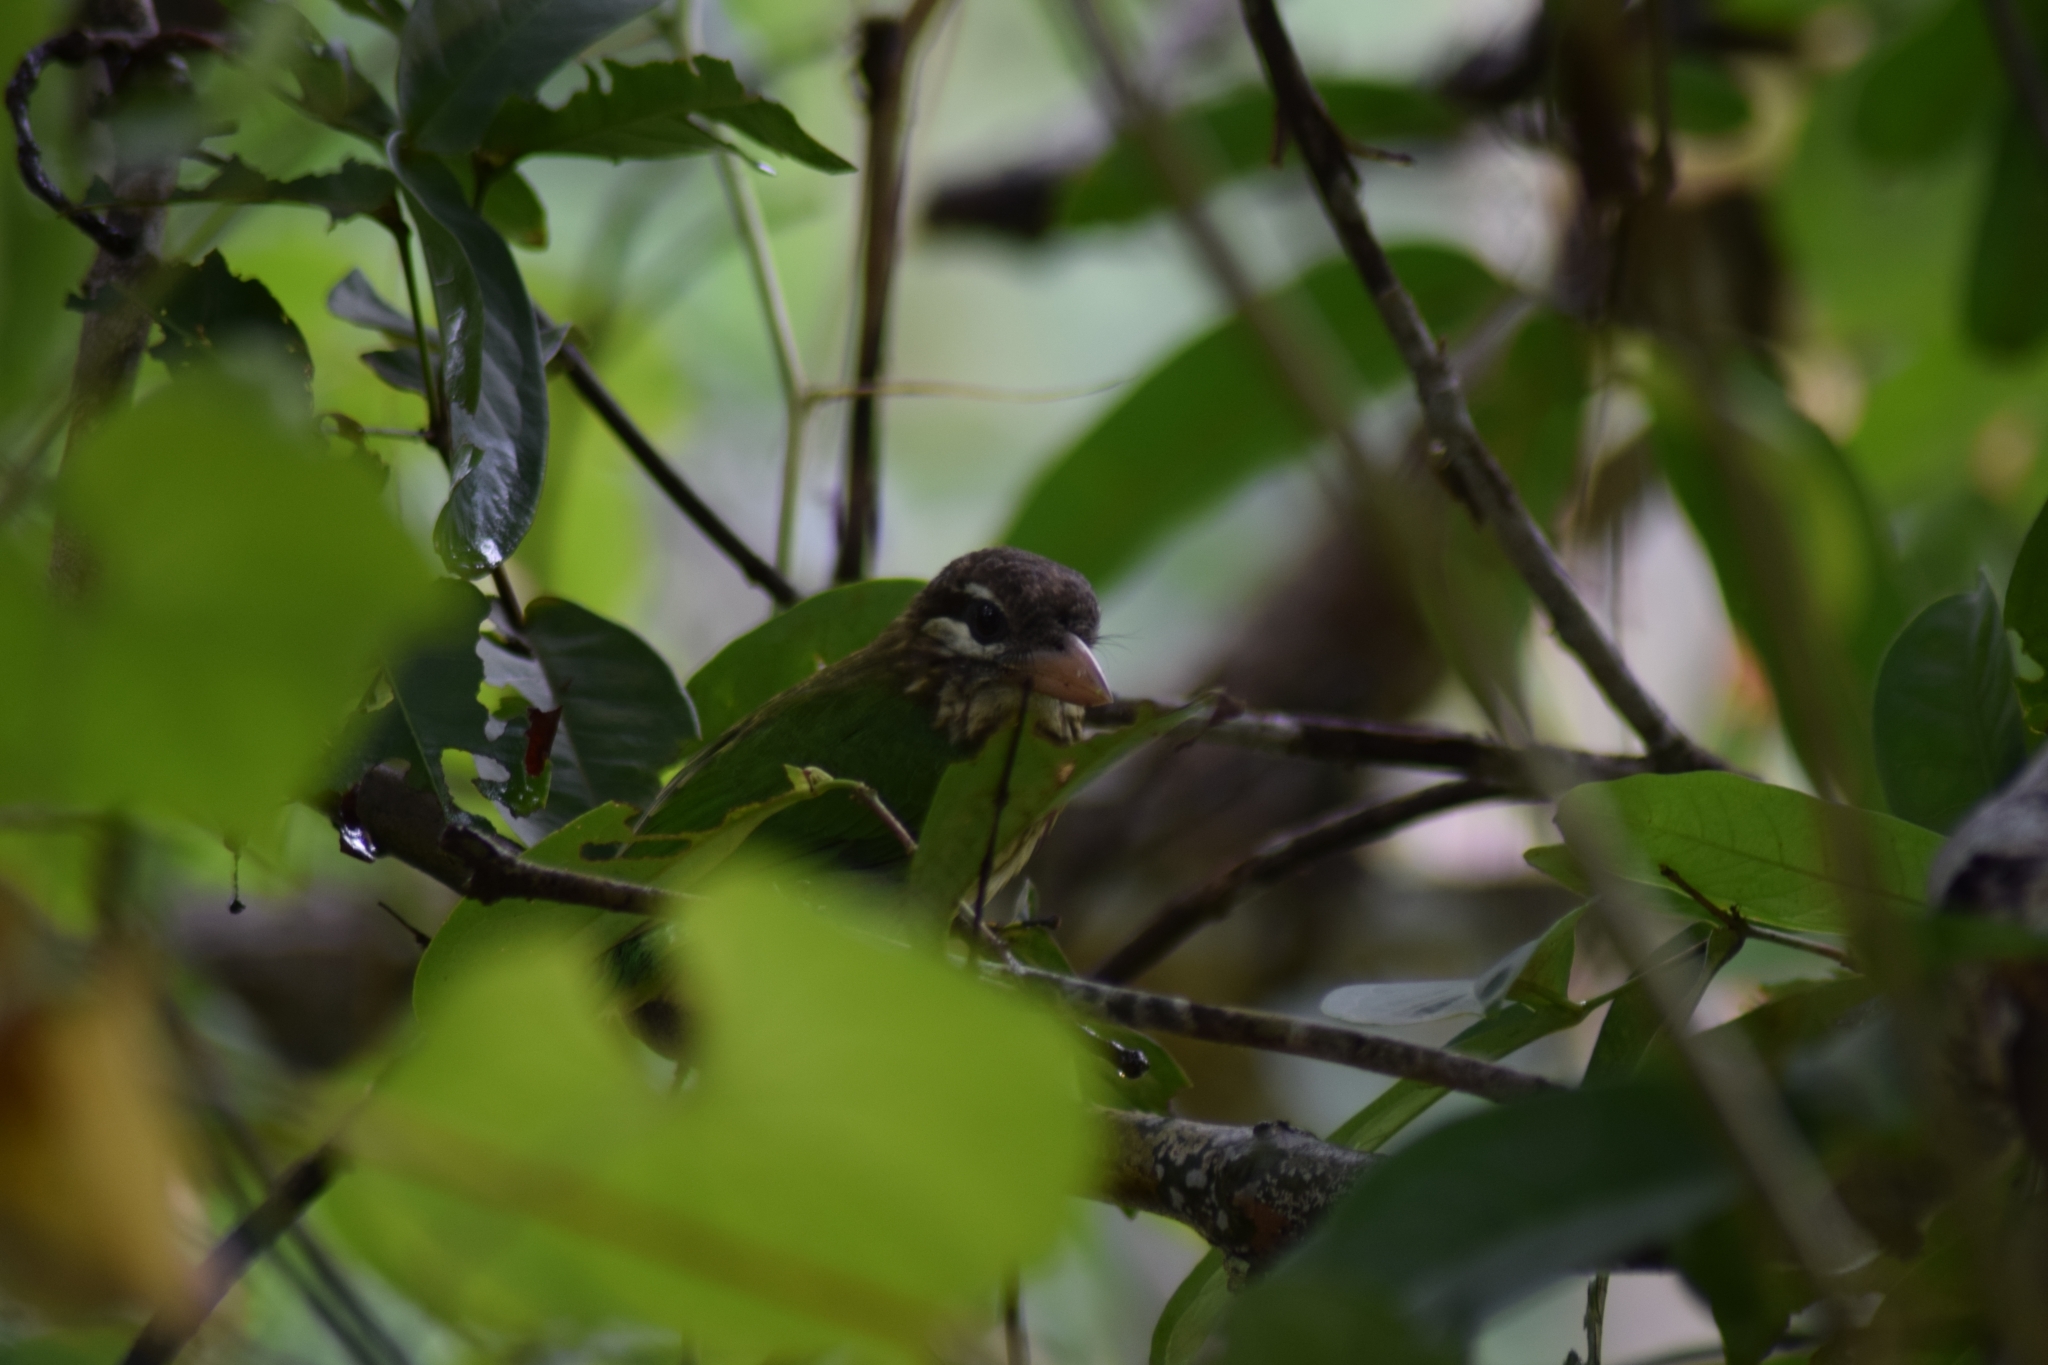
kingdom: Animalia
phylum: Chordata
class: Aves
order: Piciformes
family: Megalaimidae
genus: Psilopogon
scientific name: Psilopogon viridis
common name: White-cheeked barbet
